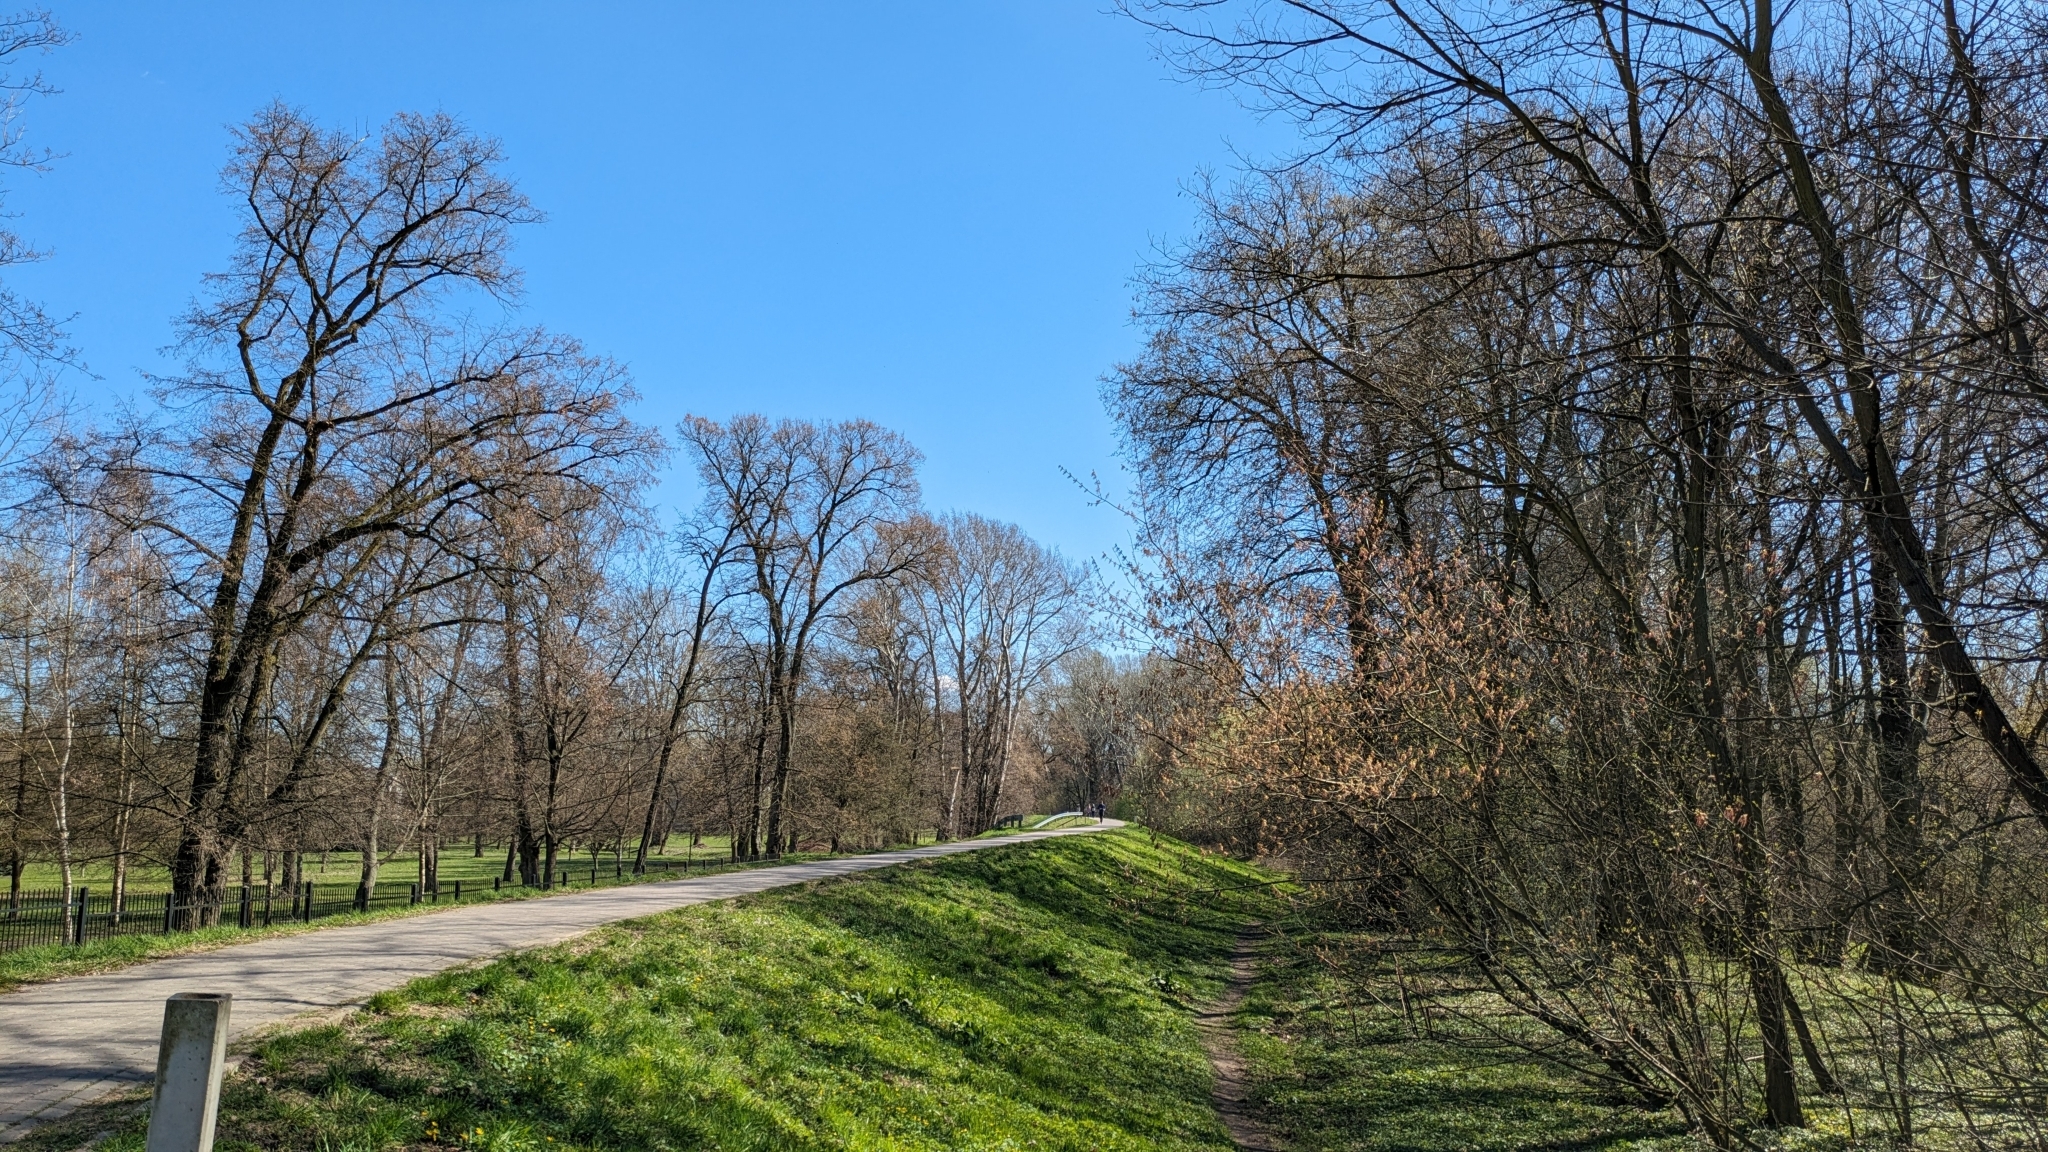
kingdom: Animalia
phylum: Chordata
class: Aves
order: Passeriformes
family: Turdidae
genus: Turdus
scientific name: Turdus merula
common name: Common blackbird
